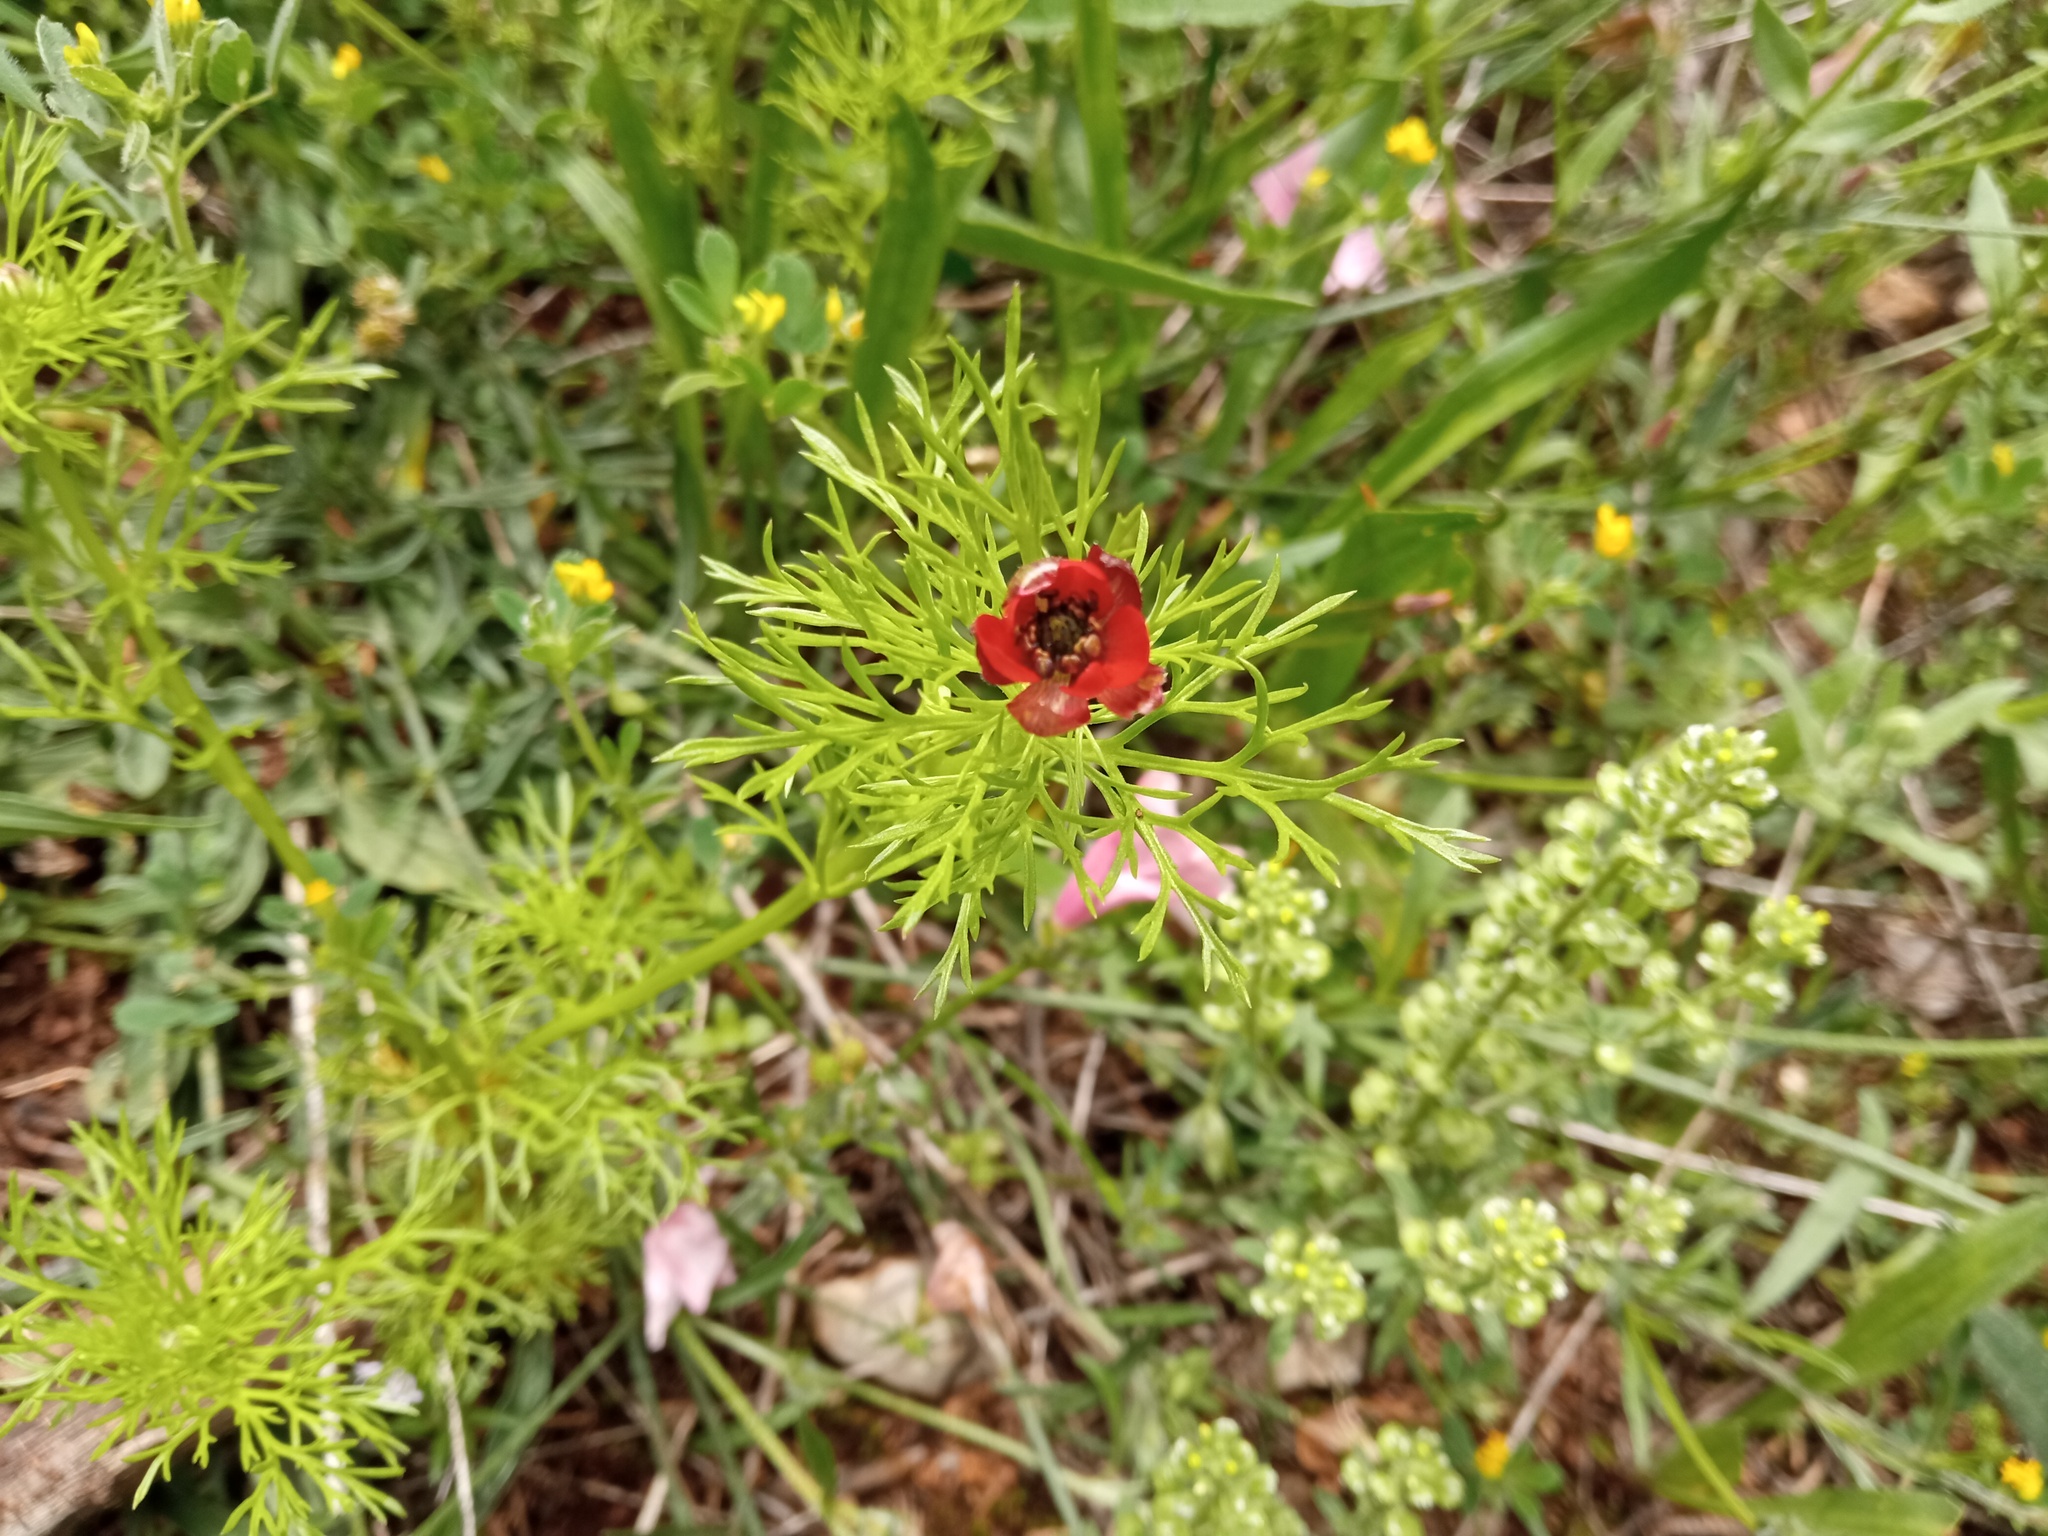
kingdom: Plantae
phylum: Tracheophyta
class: Magnoliopsida
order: Ranunculales
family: Ranunculaceae
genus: Adonis
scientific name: Adonis annua
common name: Pheasant's-eye
